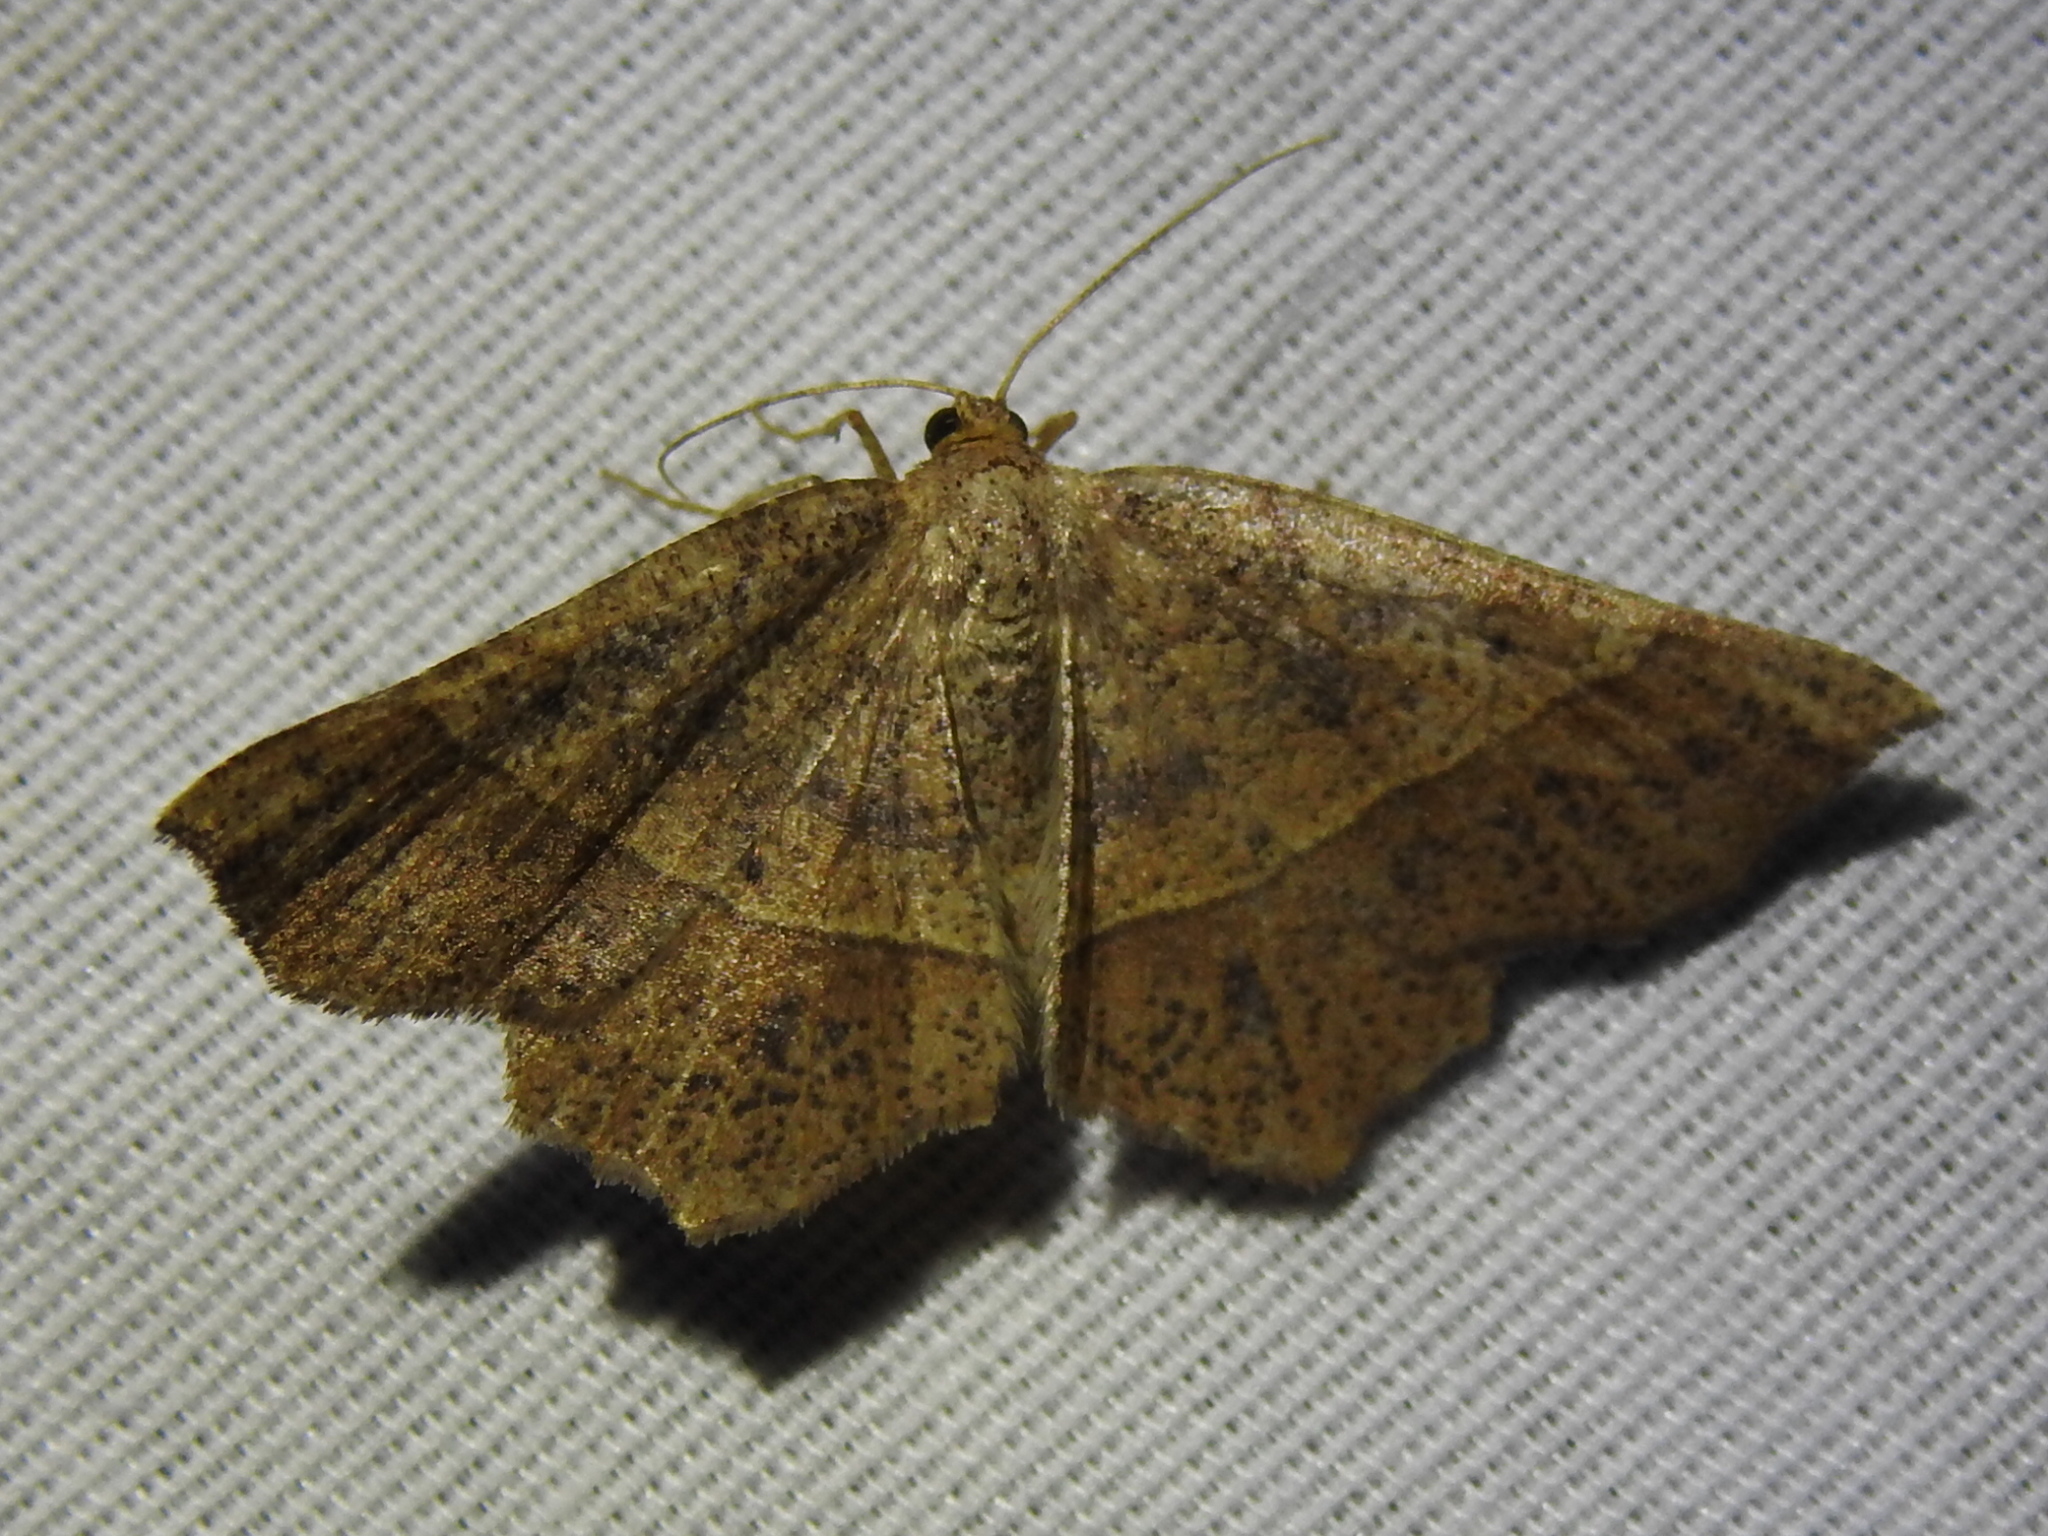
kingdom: Animalia
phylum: Arthropoda
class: Insecta
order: Lepidoptera
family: Geometridae
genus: Euchlaena
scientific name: Euchlaena tigrinaria
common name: Mottled euchlaena moth
